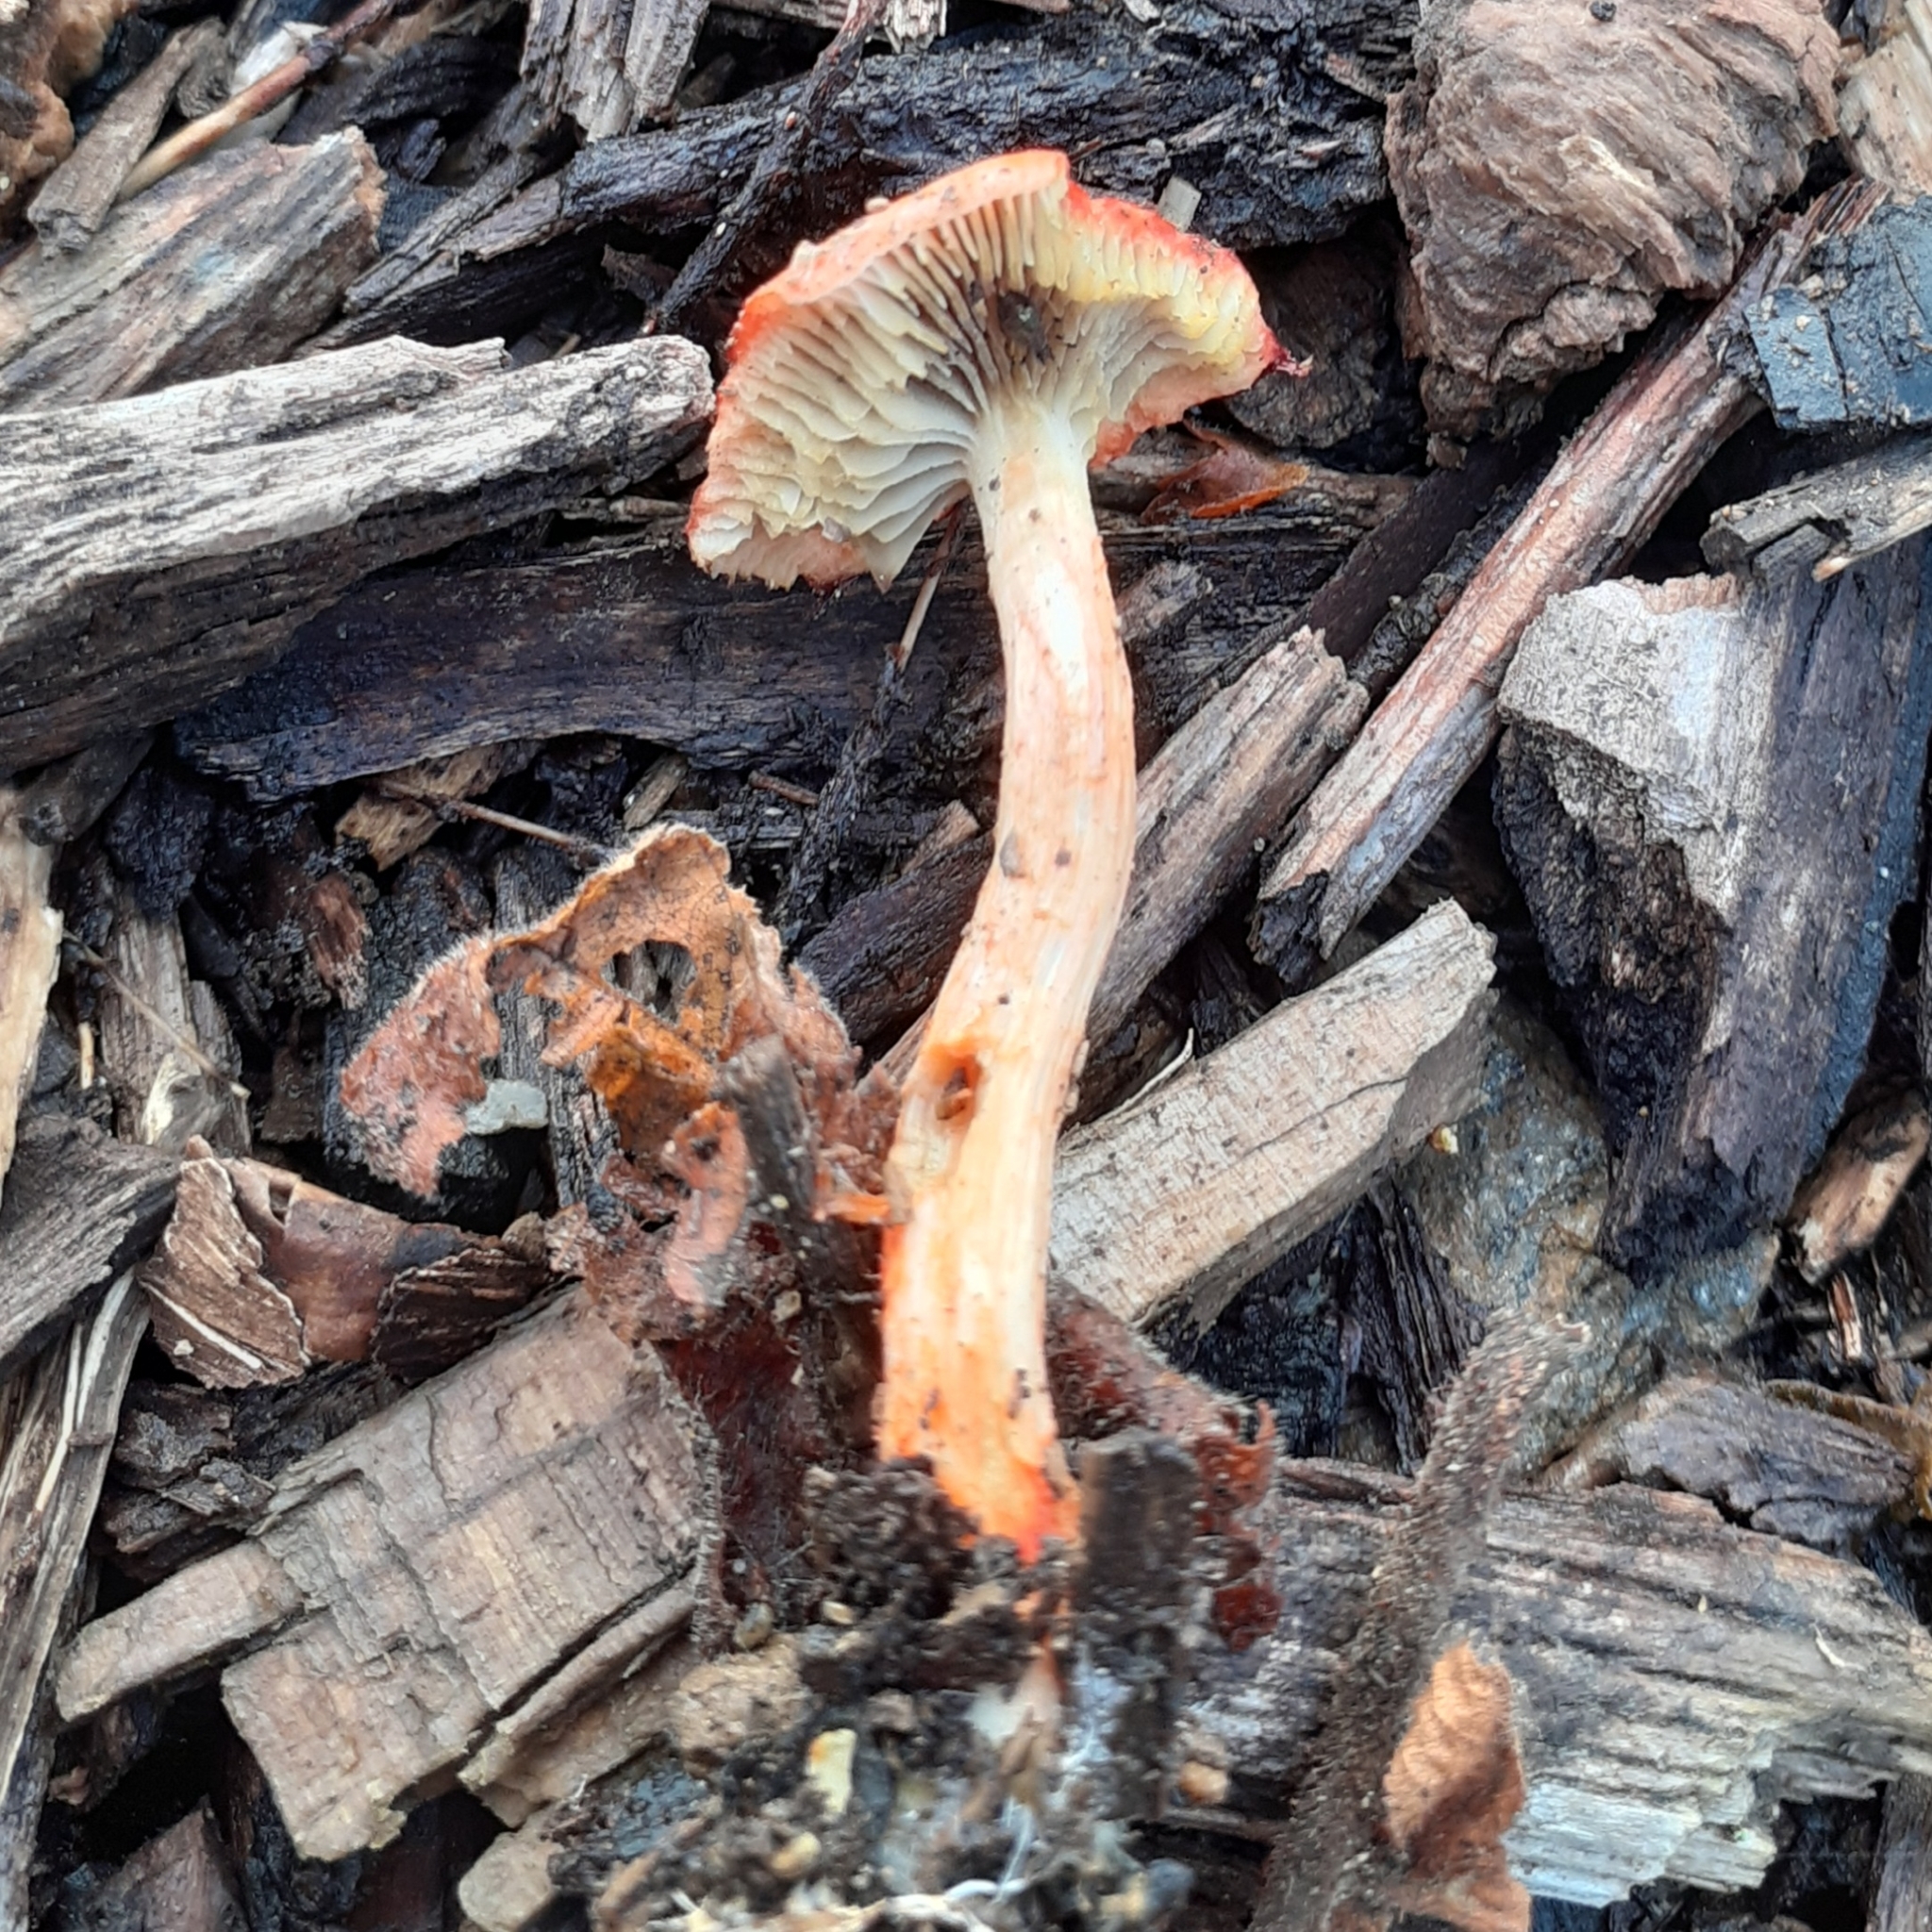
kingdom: Fungi
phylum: Basidiomycota
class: Agaricomycetes
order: Agaricales
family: Strophariaceae
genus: Leratiomyces
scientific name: Leratiomyces ceres
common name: Redlead roundhead
